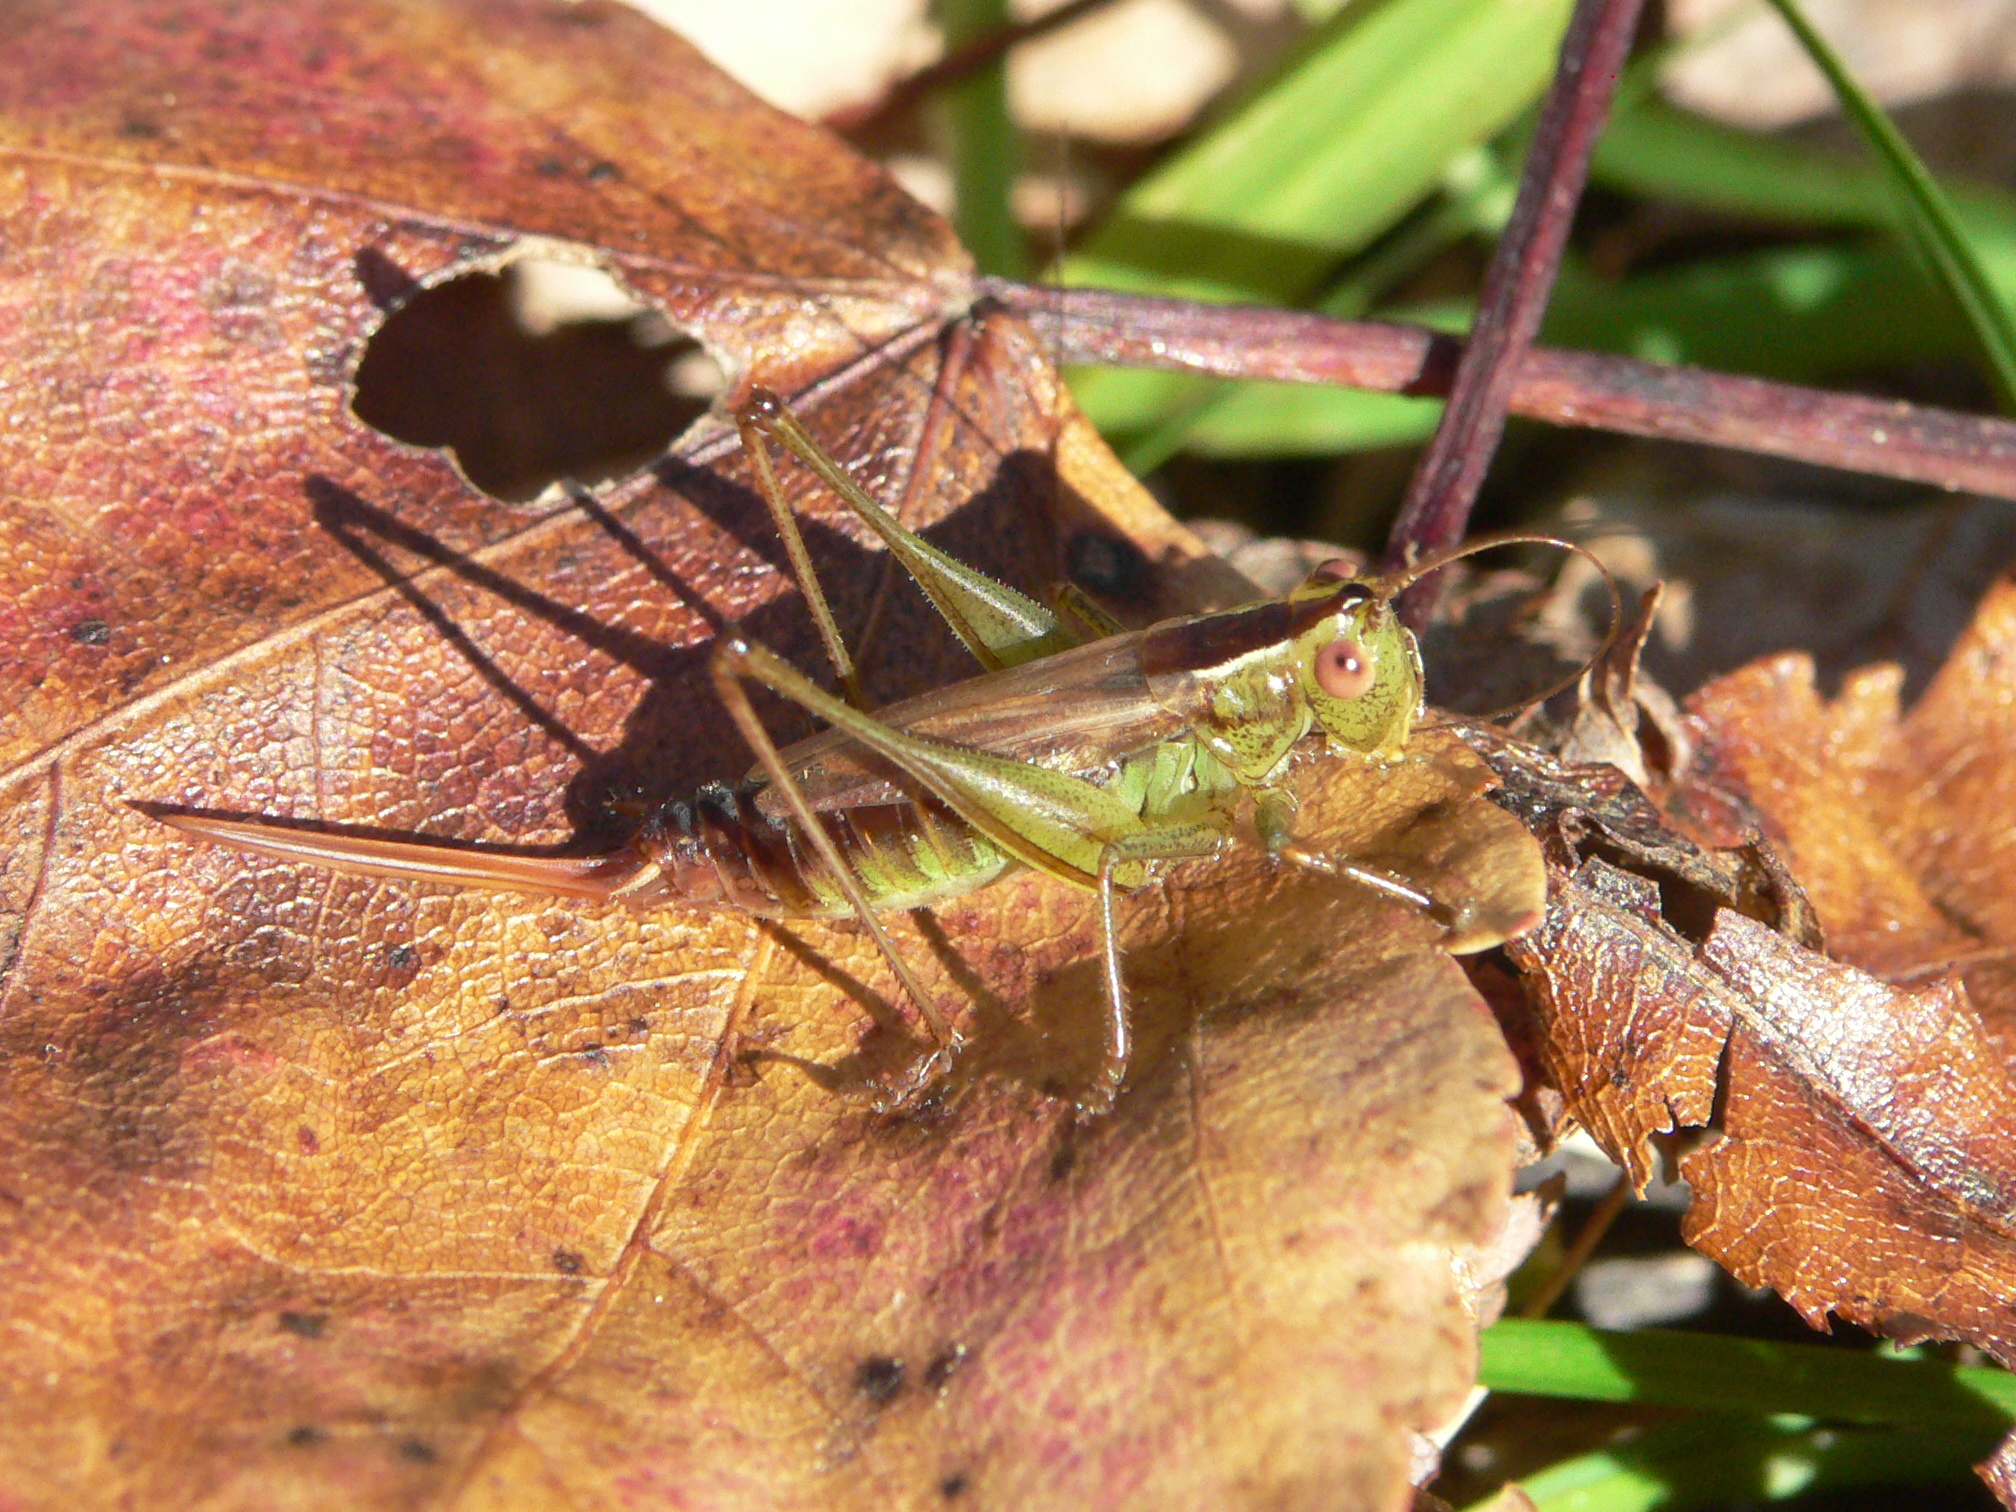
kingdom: Animalia
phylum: Arthropoda
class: Insecta
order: Orthoptera
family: Tettigoniidae
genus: Conocephalus
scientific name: Conocephalus brevipennis
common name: Short-winged meadow katydid
